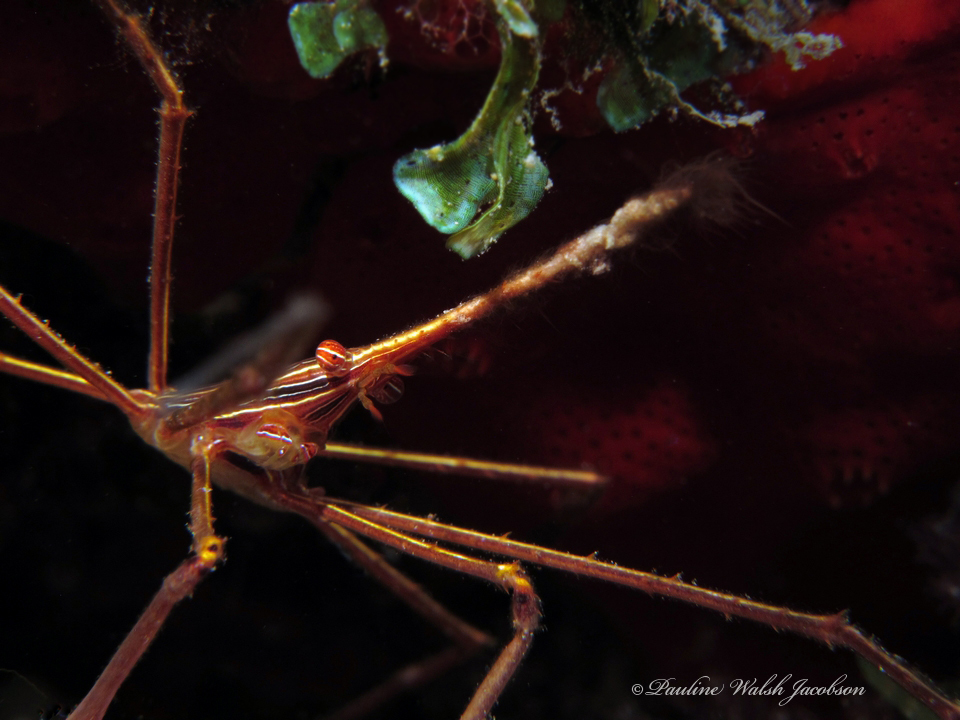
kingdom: Animalia
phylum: Arthropoda
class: Malacostraca
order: Decapoda
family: Inachoididae
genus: Stenorhynchus
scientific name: Stenorhynchus seticornis
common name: Arrow crab
